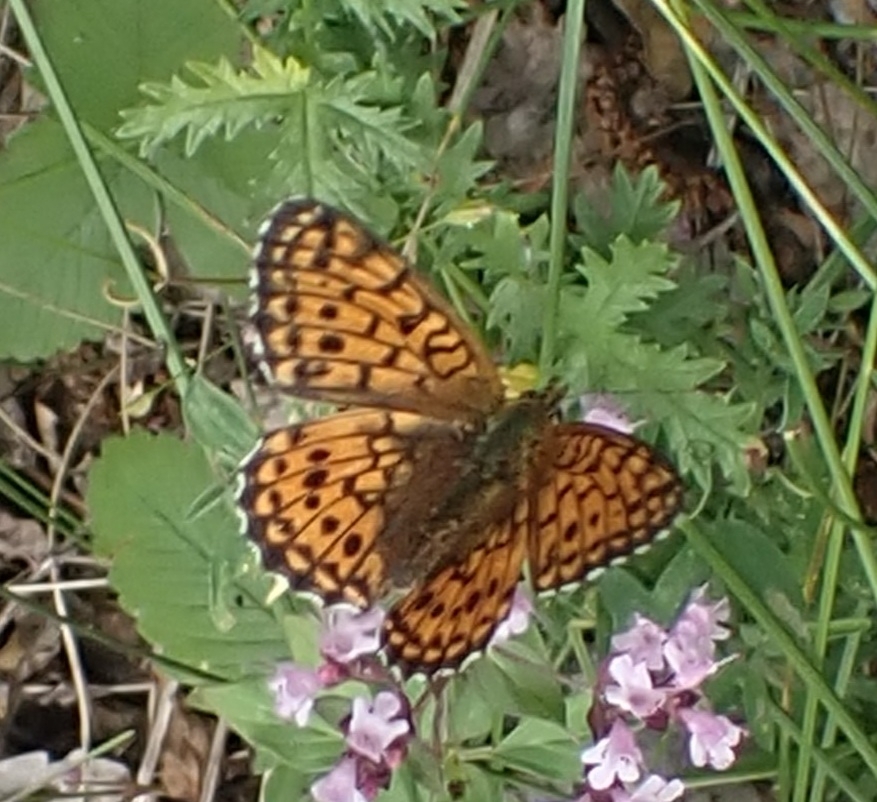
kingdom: Animalia
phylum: Arthropoda
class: Insecta
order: Lepidoptera
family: Nymphalidae
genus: Brenthis
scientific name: Brenthis ino
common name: Lesser marbled fritillary
